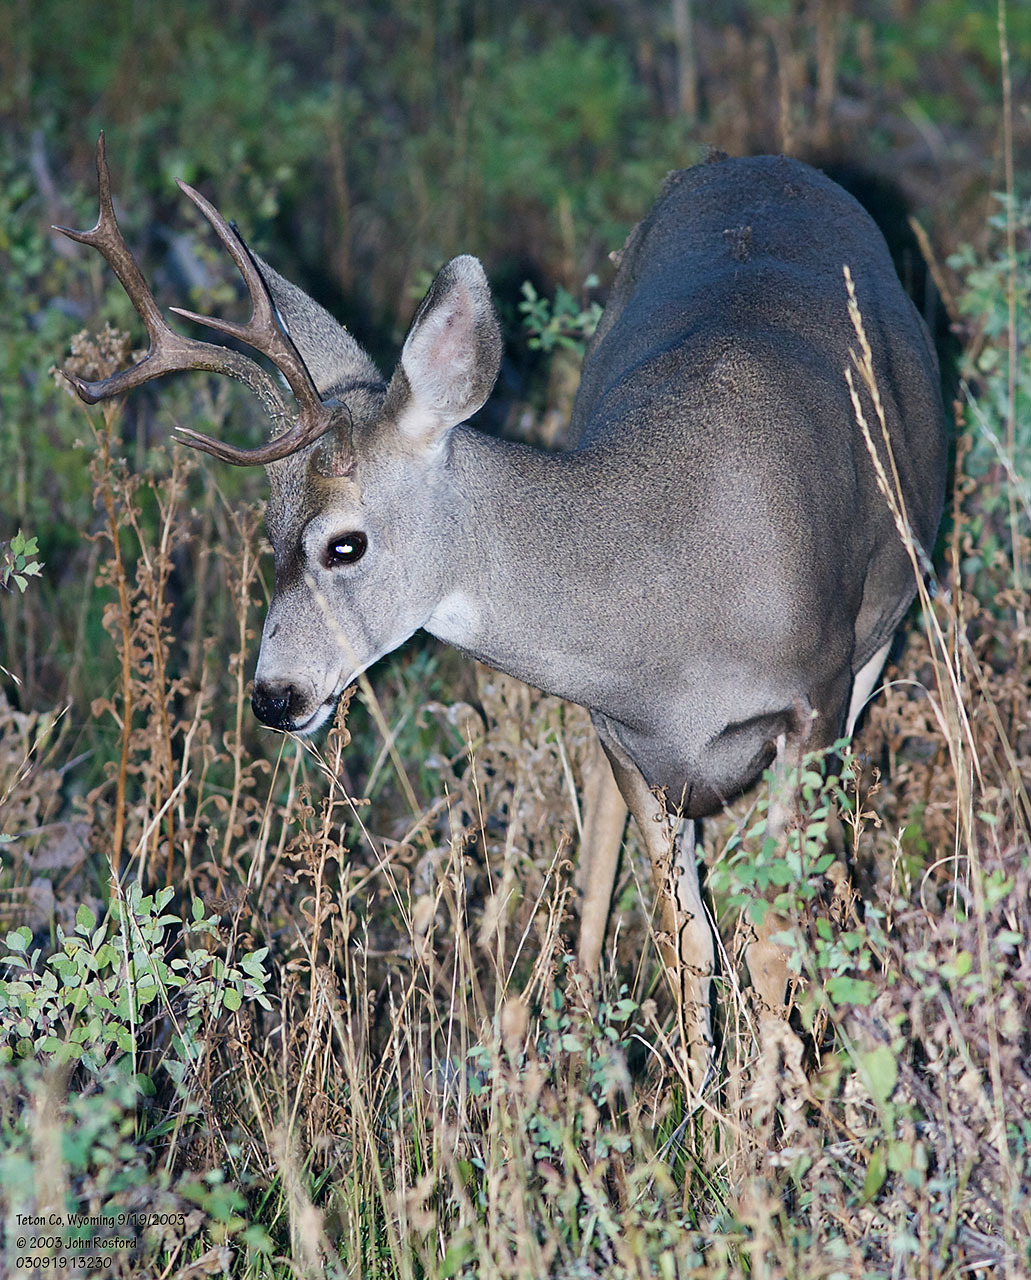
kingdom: Animalia
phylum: Chordata
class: Mammalia
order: Artiodactyla
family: Cervidae
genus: Odocoileus
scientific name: Odocoileus hemionus
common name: Mule deer
